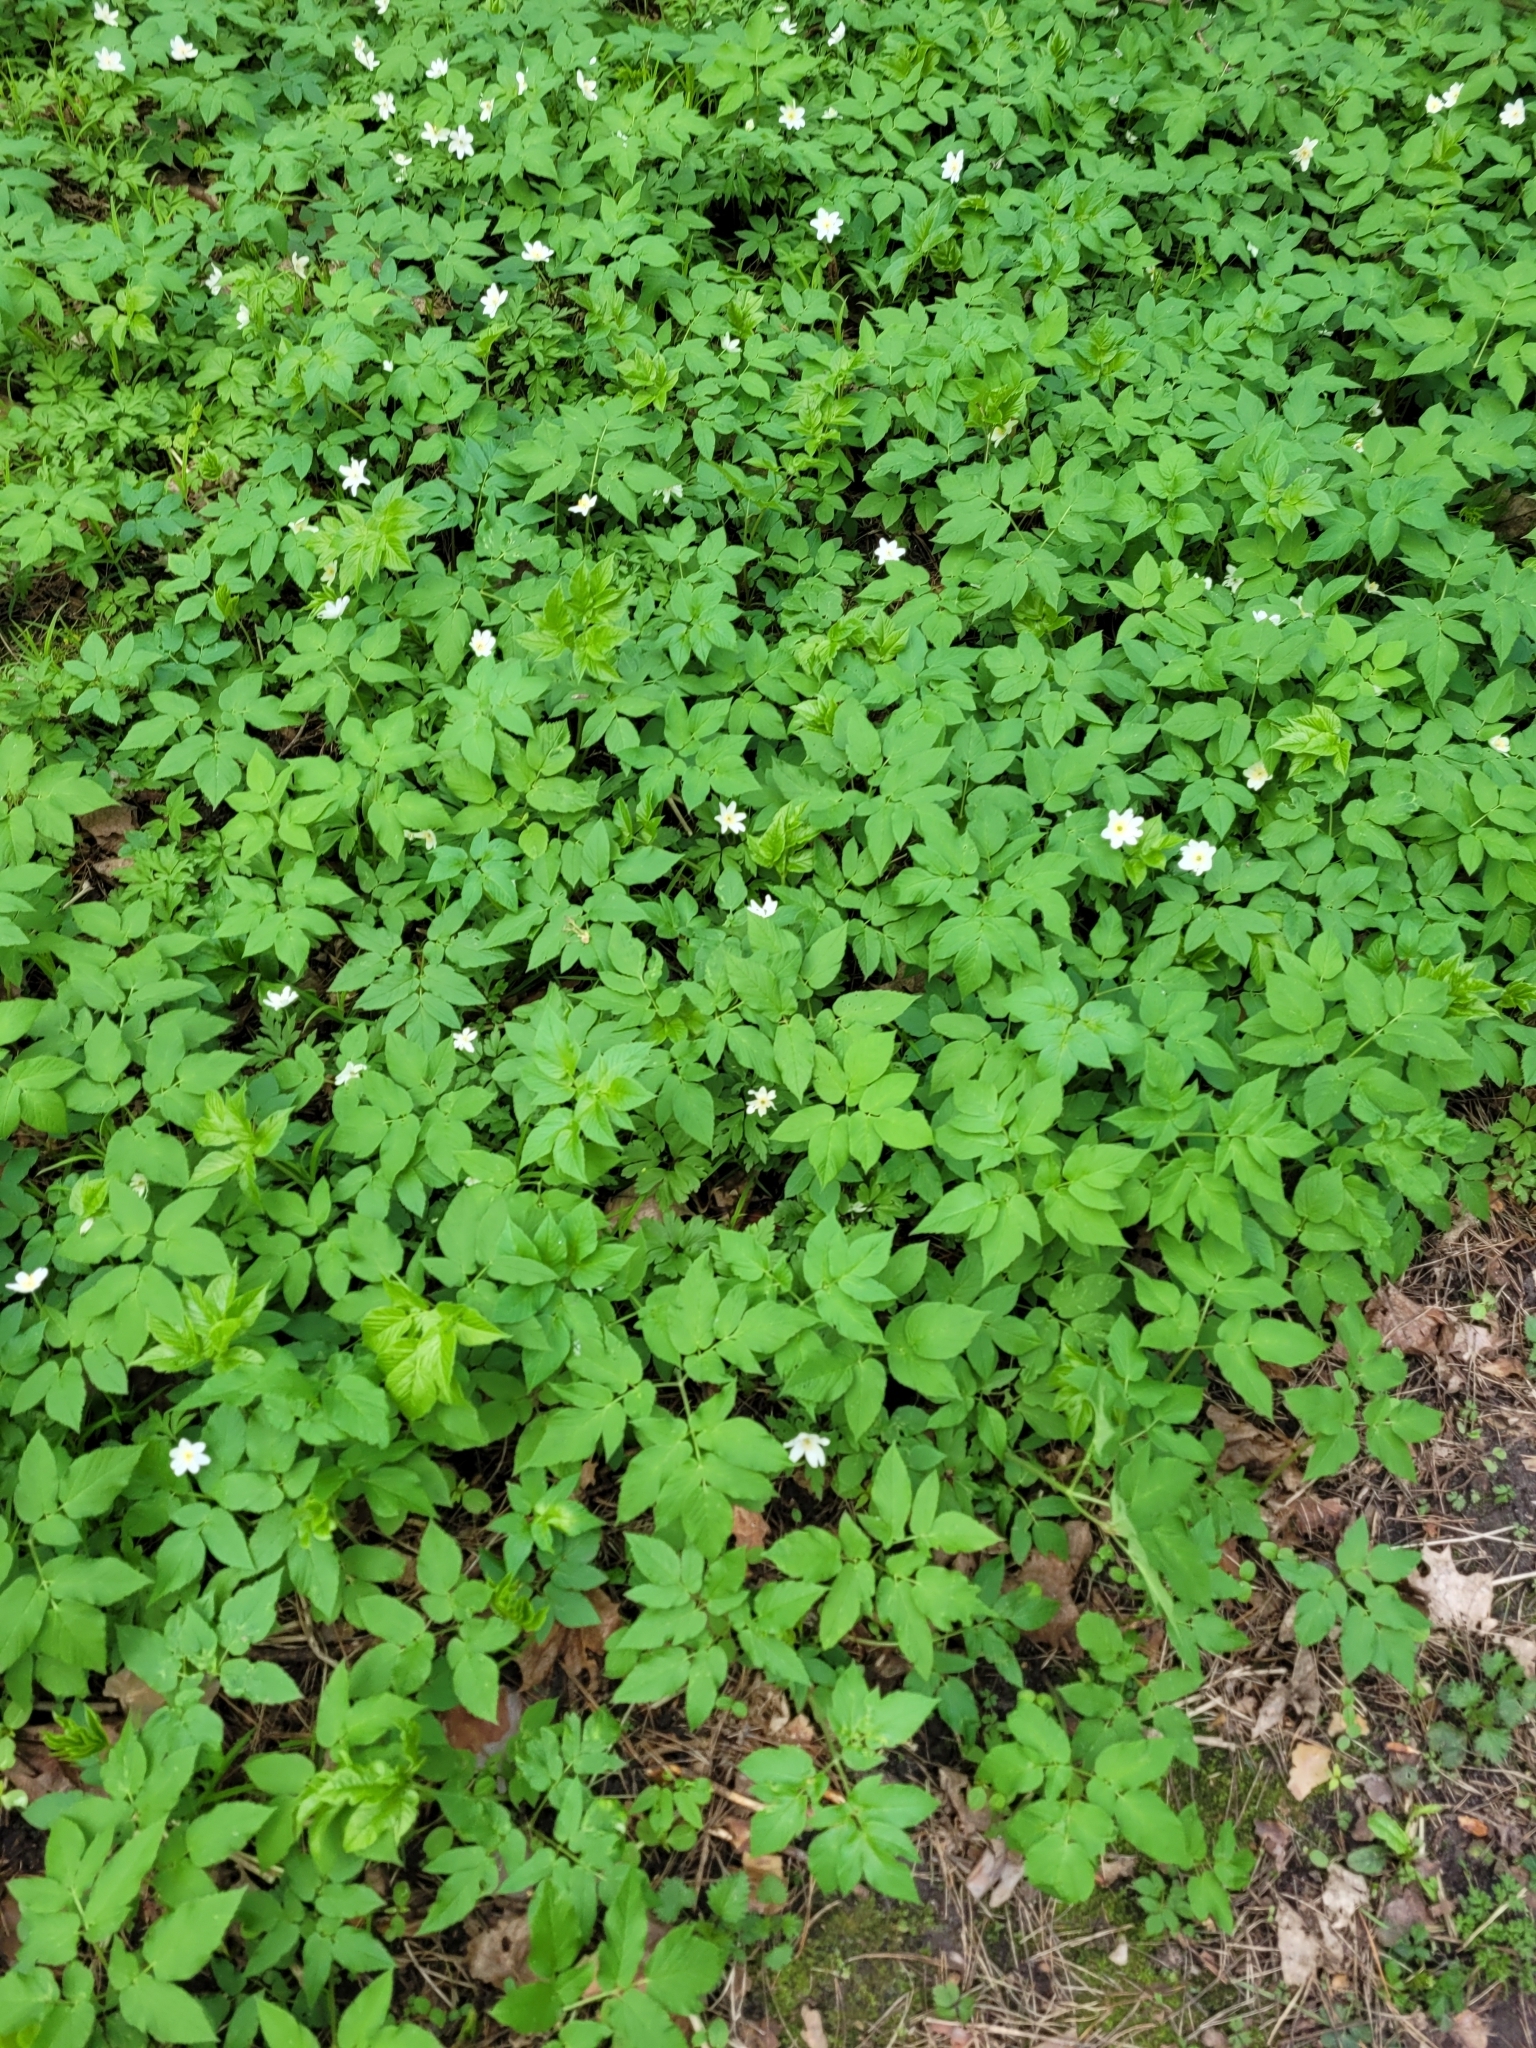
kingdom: Plantae
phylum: Tracheophyta
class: Magnoliopsida
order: Apiales
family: Apiaceae
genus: Aegopodium
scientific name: Aegopodium podagraria
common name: Ground-elder
